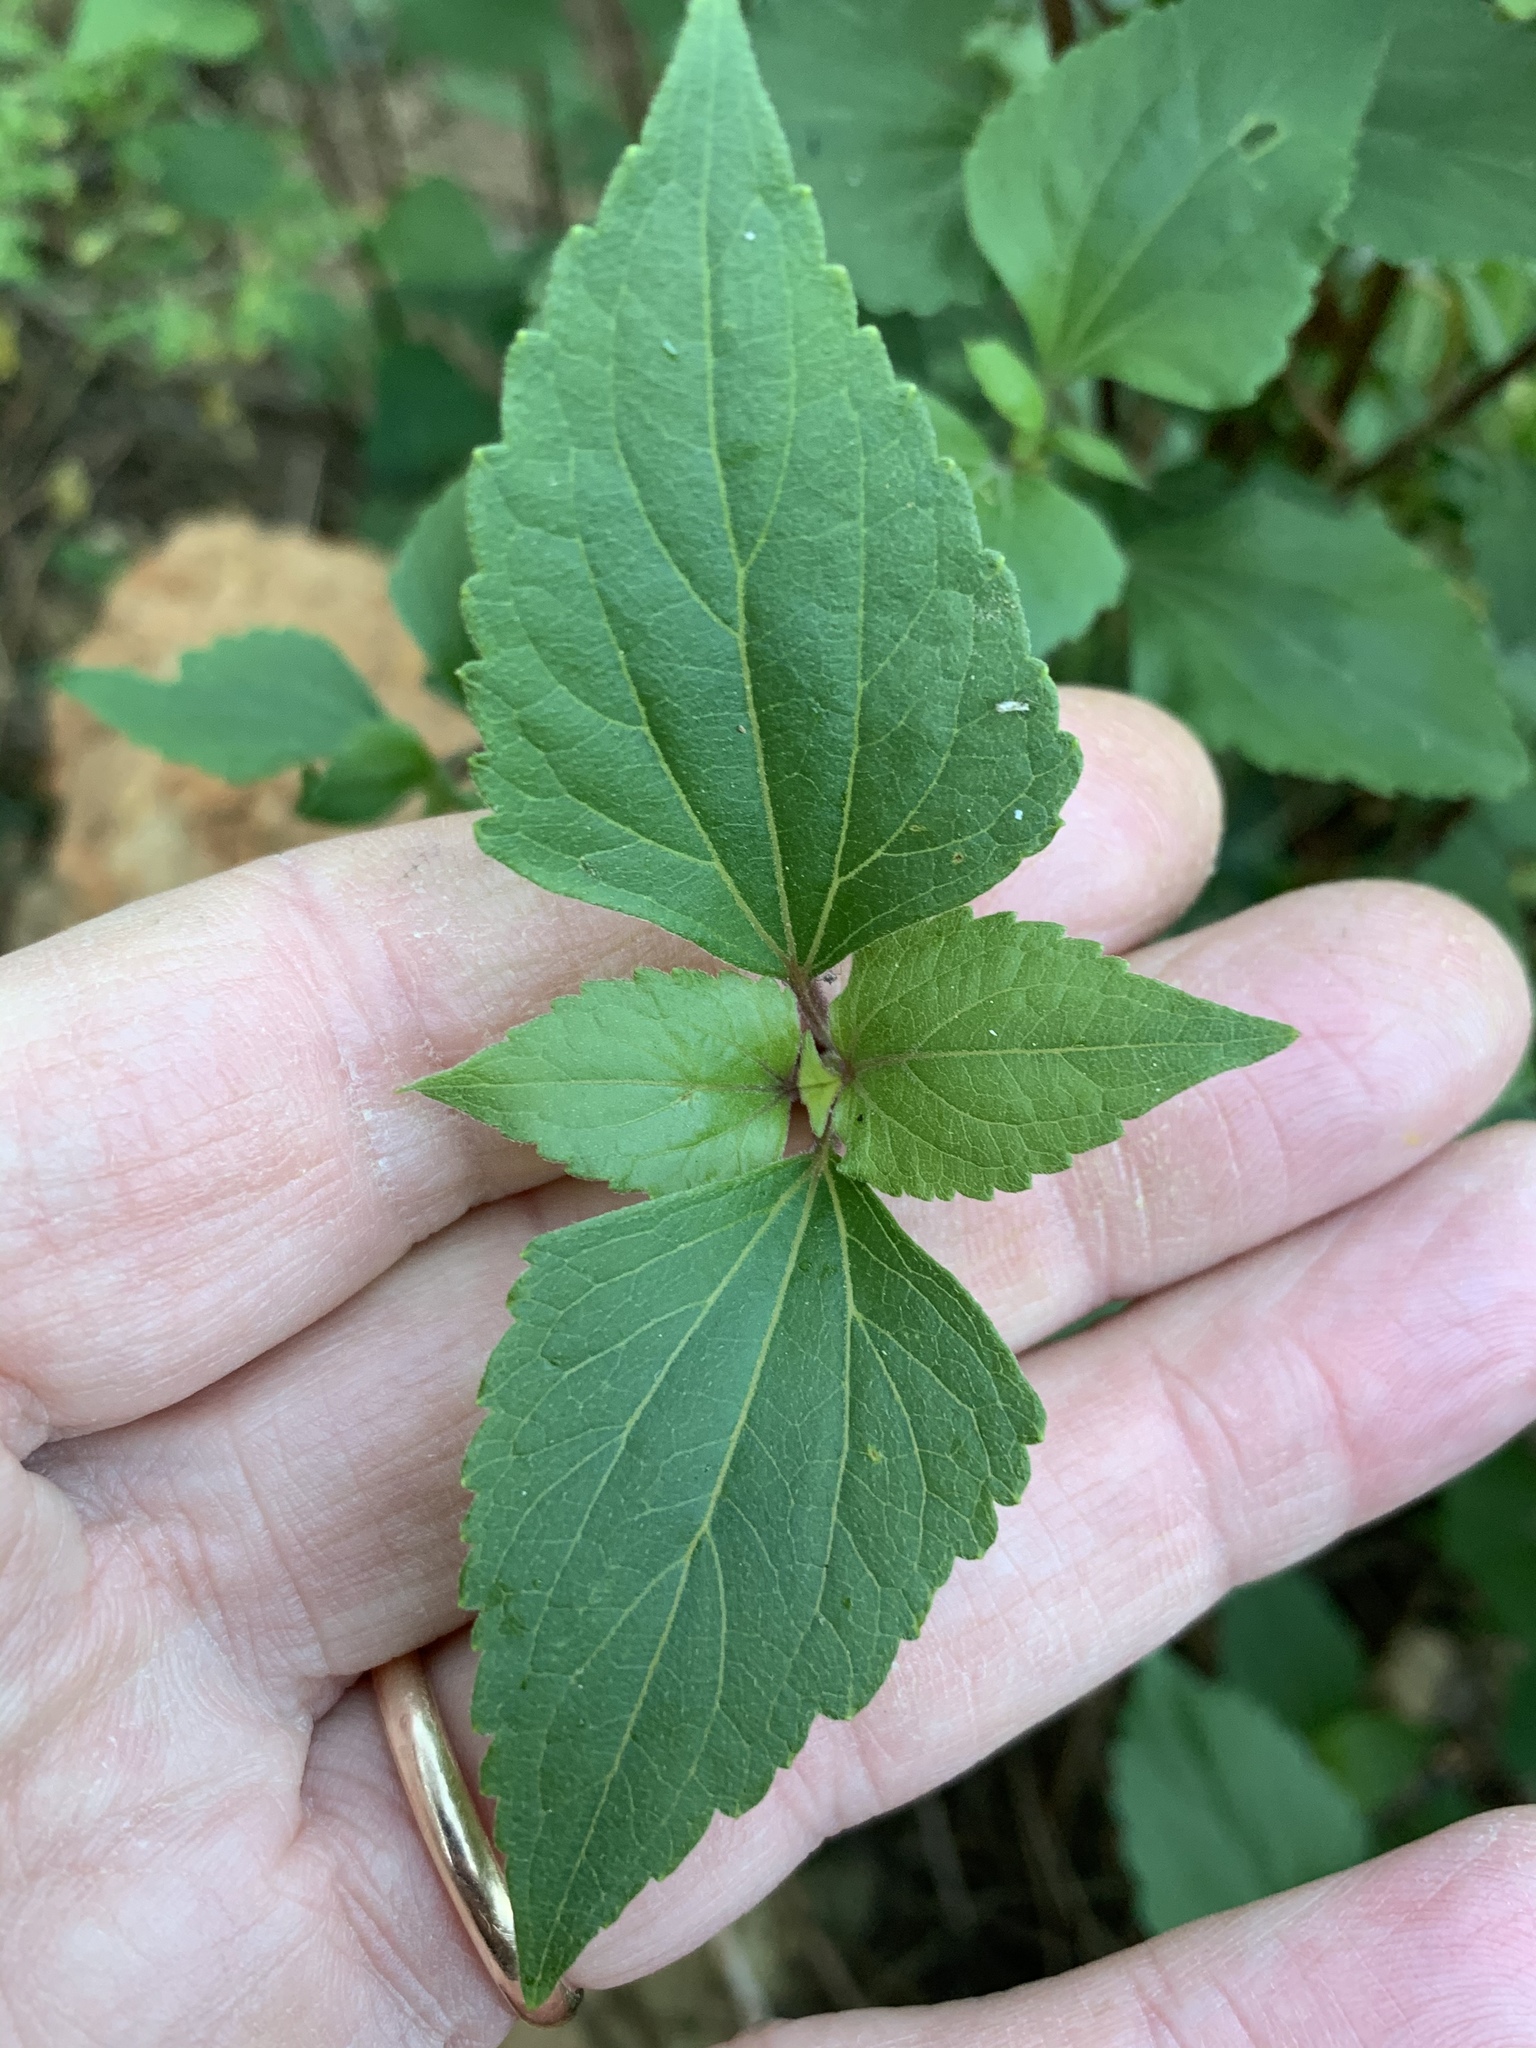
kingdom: Plantae
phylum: Tracheophyta
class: Magnoliopsida
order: Asterales
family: Asteraceae
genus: Ageratina
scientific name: Ageratina adenophora
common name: Sticky snakeroot
